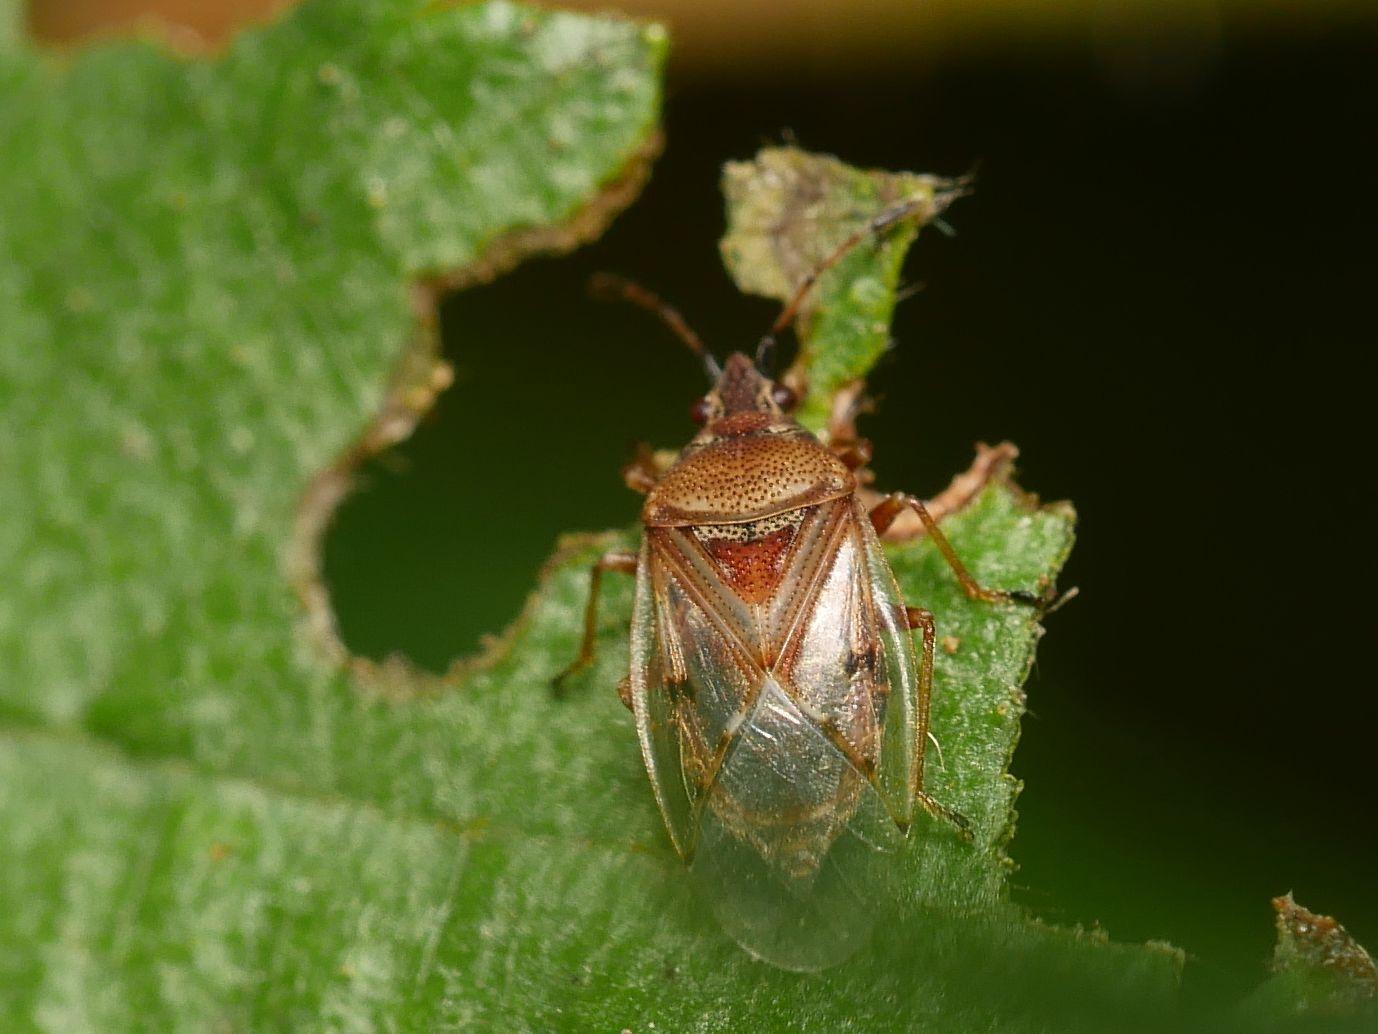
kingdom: Animalia
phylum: Arthropoda
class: Insecta
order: Hemiptera
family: Lygaeidae
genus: Kleidocerys
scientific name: Kleidocerys resedae
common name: Birch catkin bug
